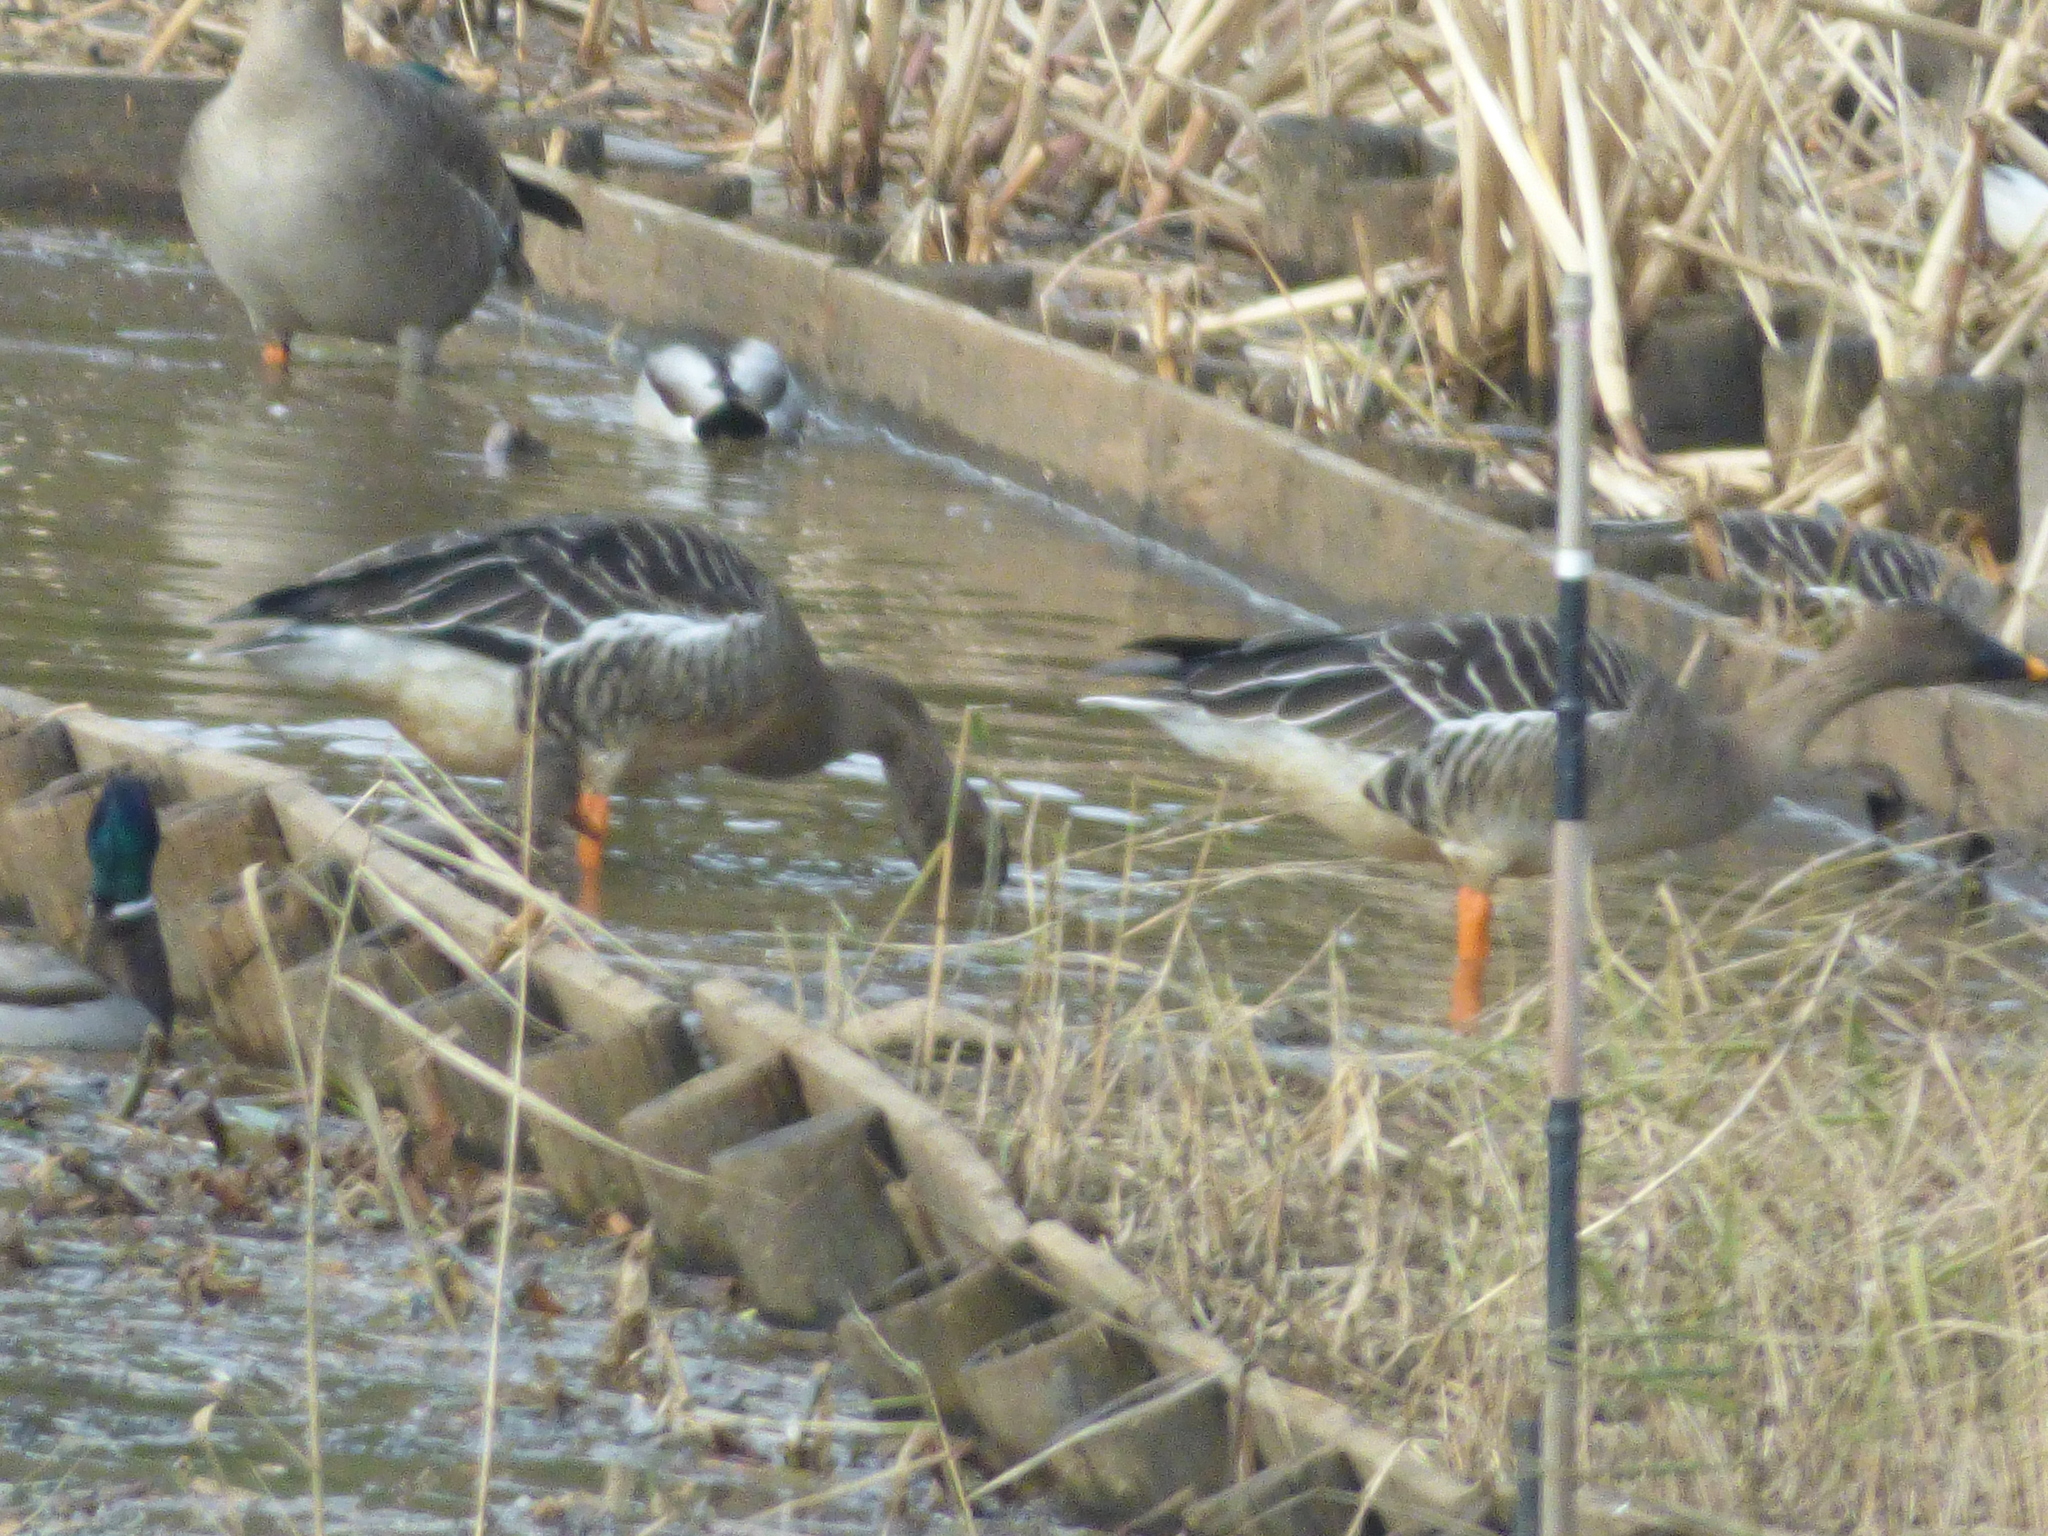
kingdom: Animalia
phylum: Chordata
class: Aves
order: Anseriformes
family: Anatidae
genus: Anser
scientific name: Anser fabalis
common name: Bean goose
